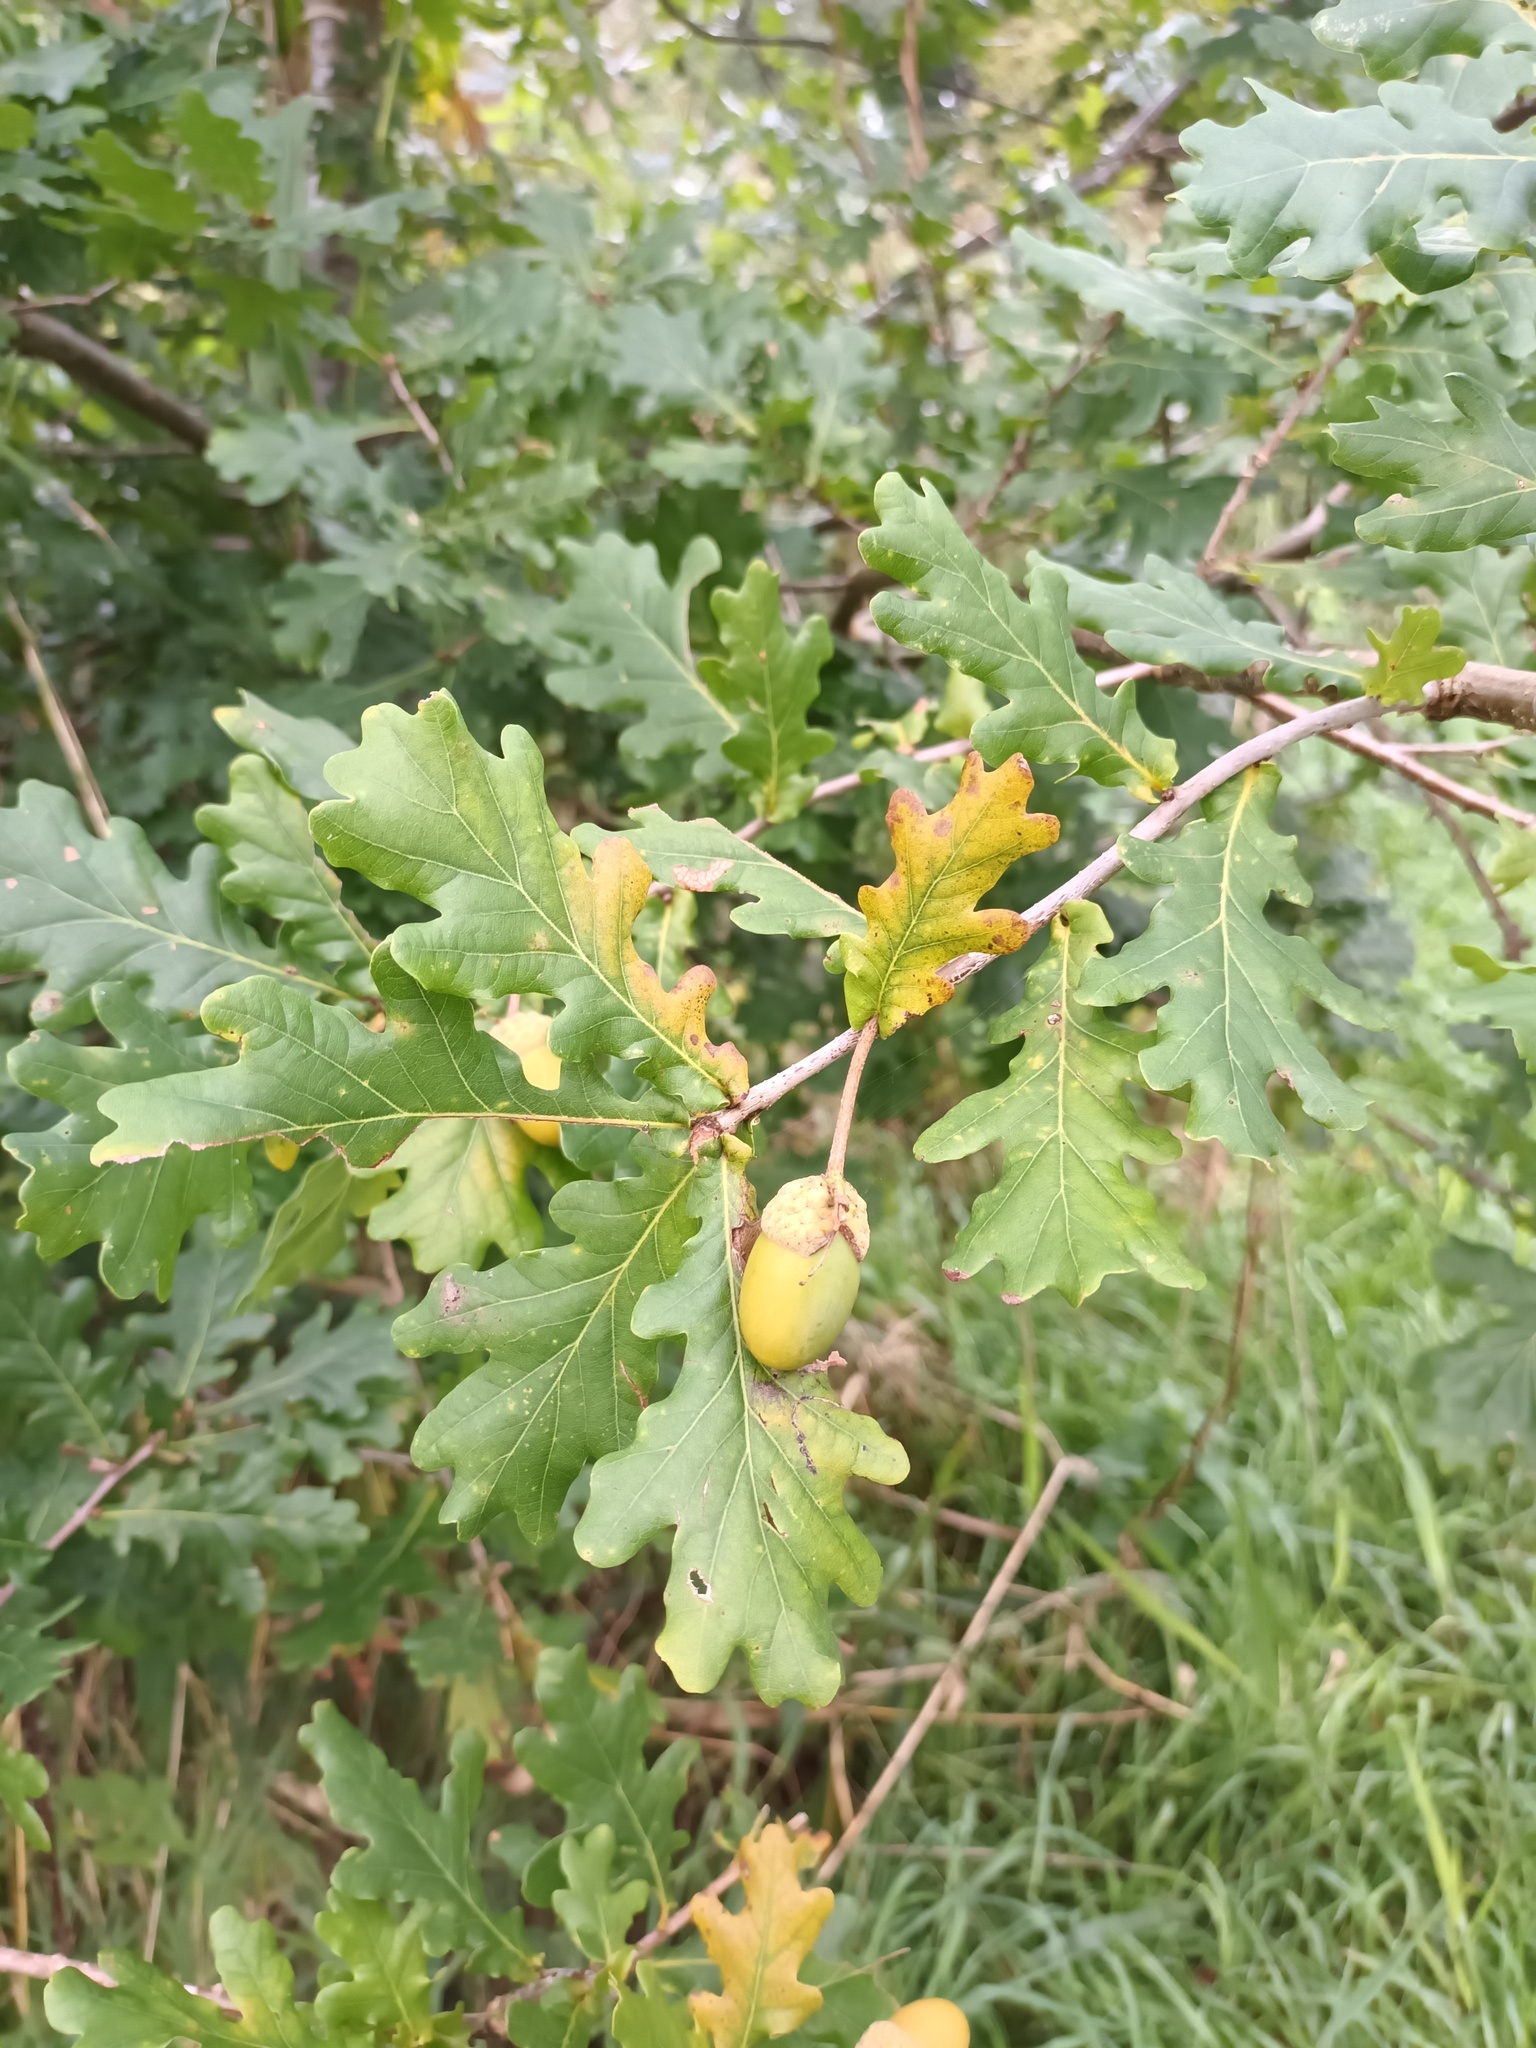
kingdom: Plantae
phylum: Tracheophyta
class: Magnoliopsida
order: Fagales
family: Fagaceae
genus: Quercus
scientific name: Quercus robur
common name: Pedunculate oak
